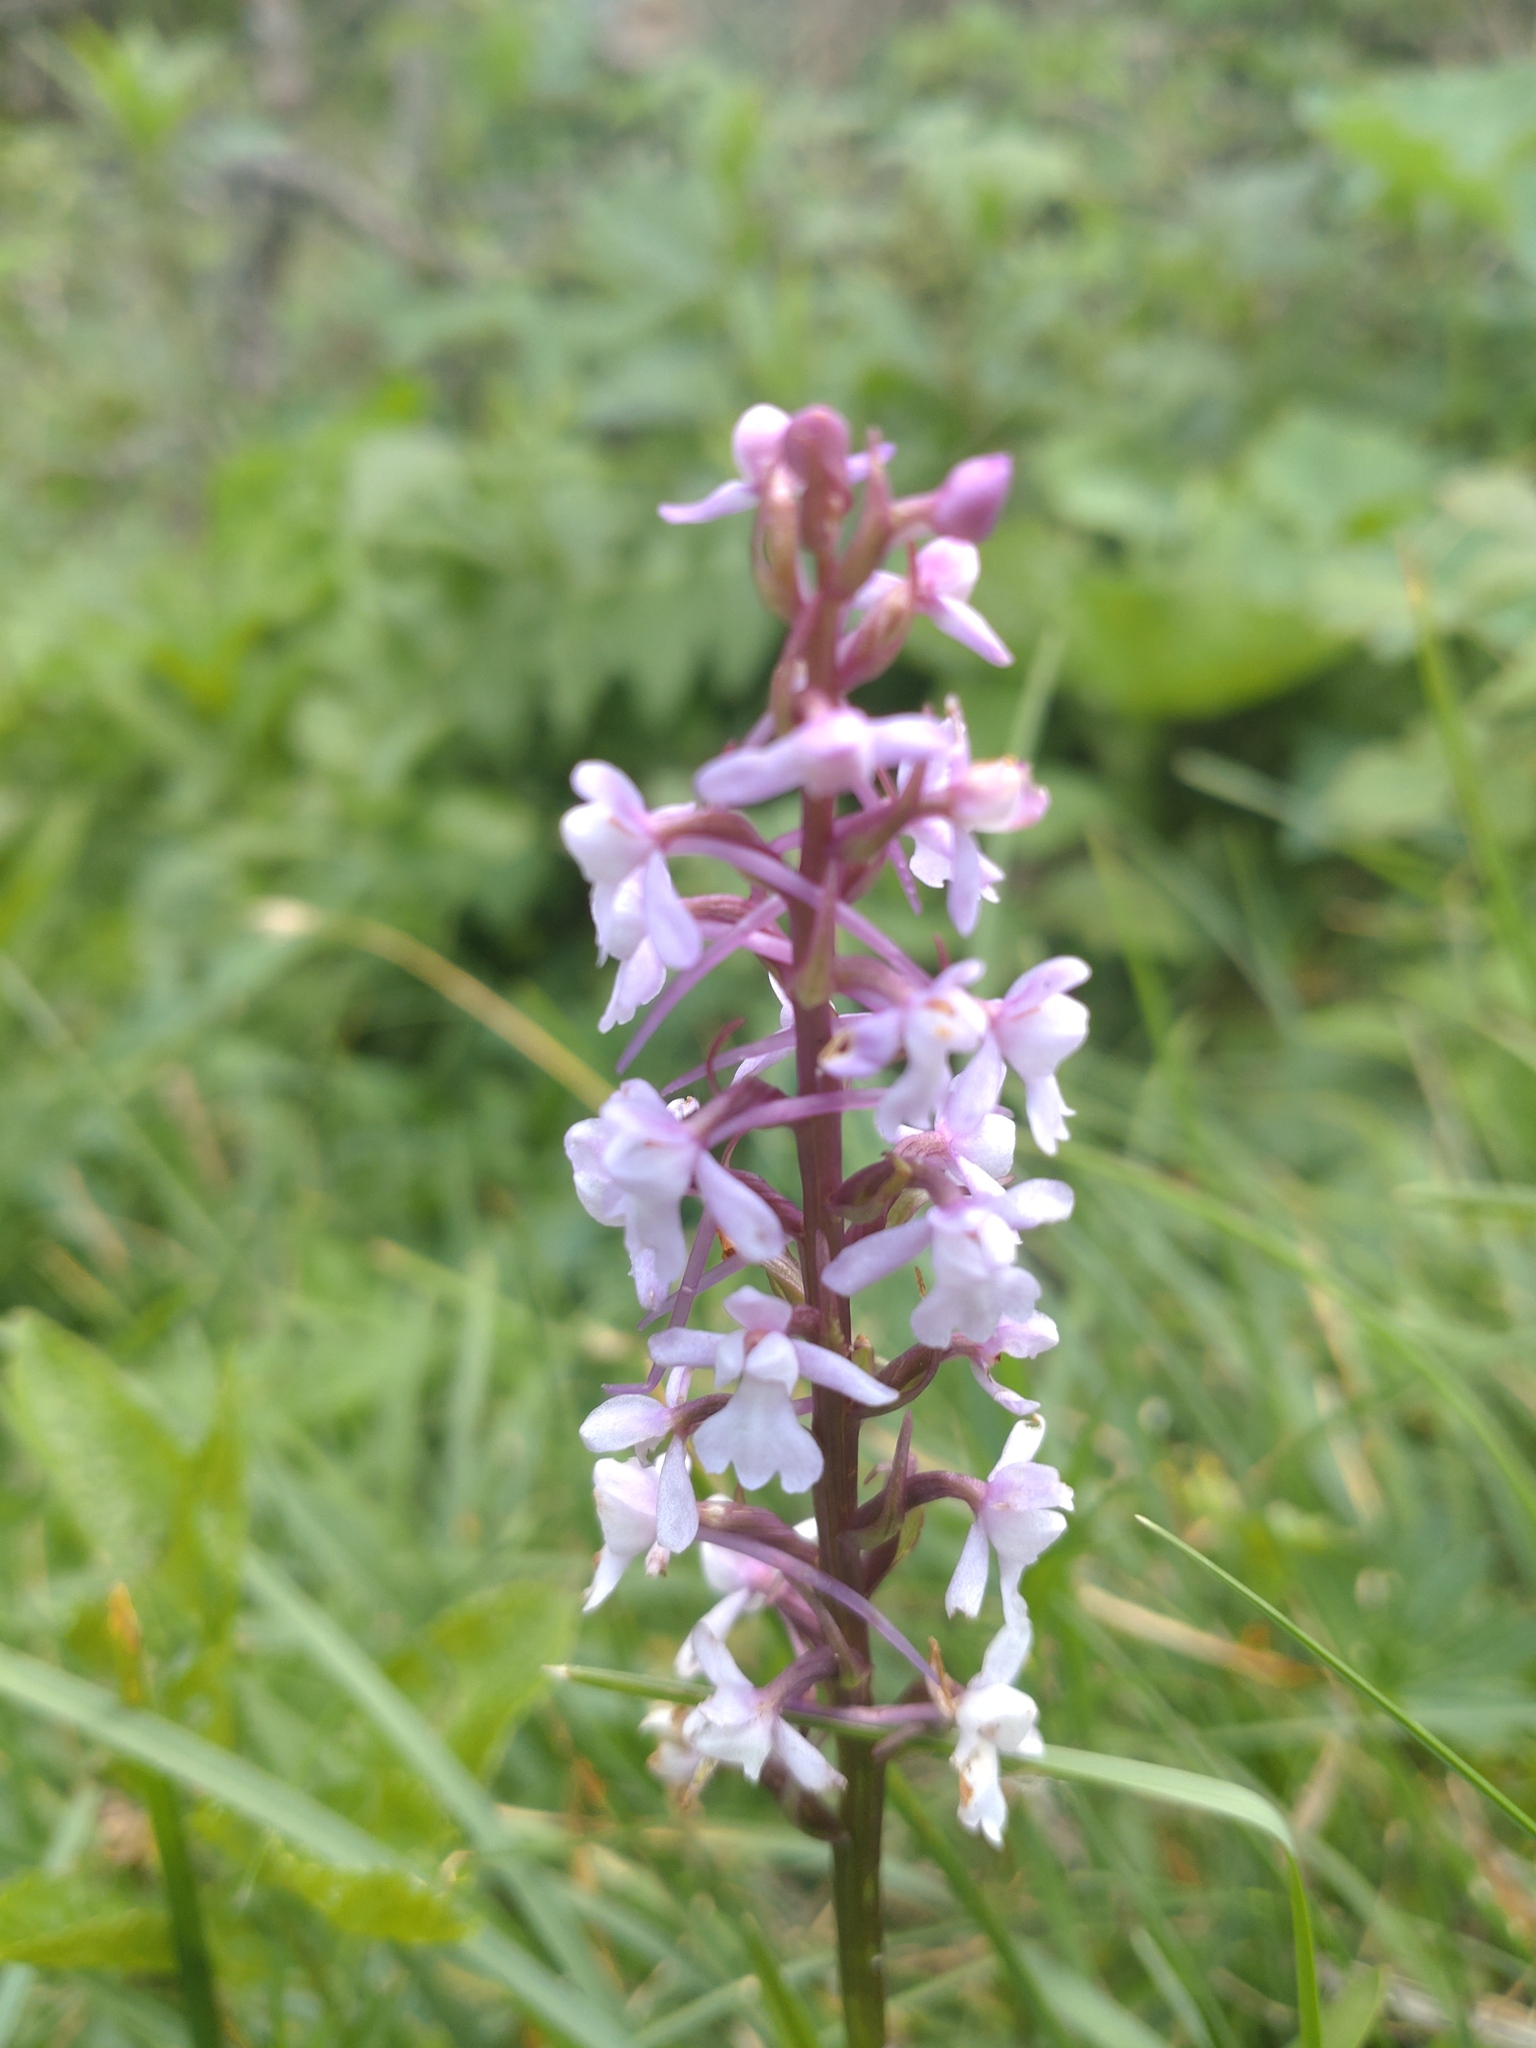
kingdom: Plantae
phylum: Tracheophyta
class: Liliopsida
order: Asparagales
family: Orchidaceae
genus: Gymnadenia
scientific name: Gymnadenia conopsea
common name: Fragrant orchid
